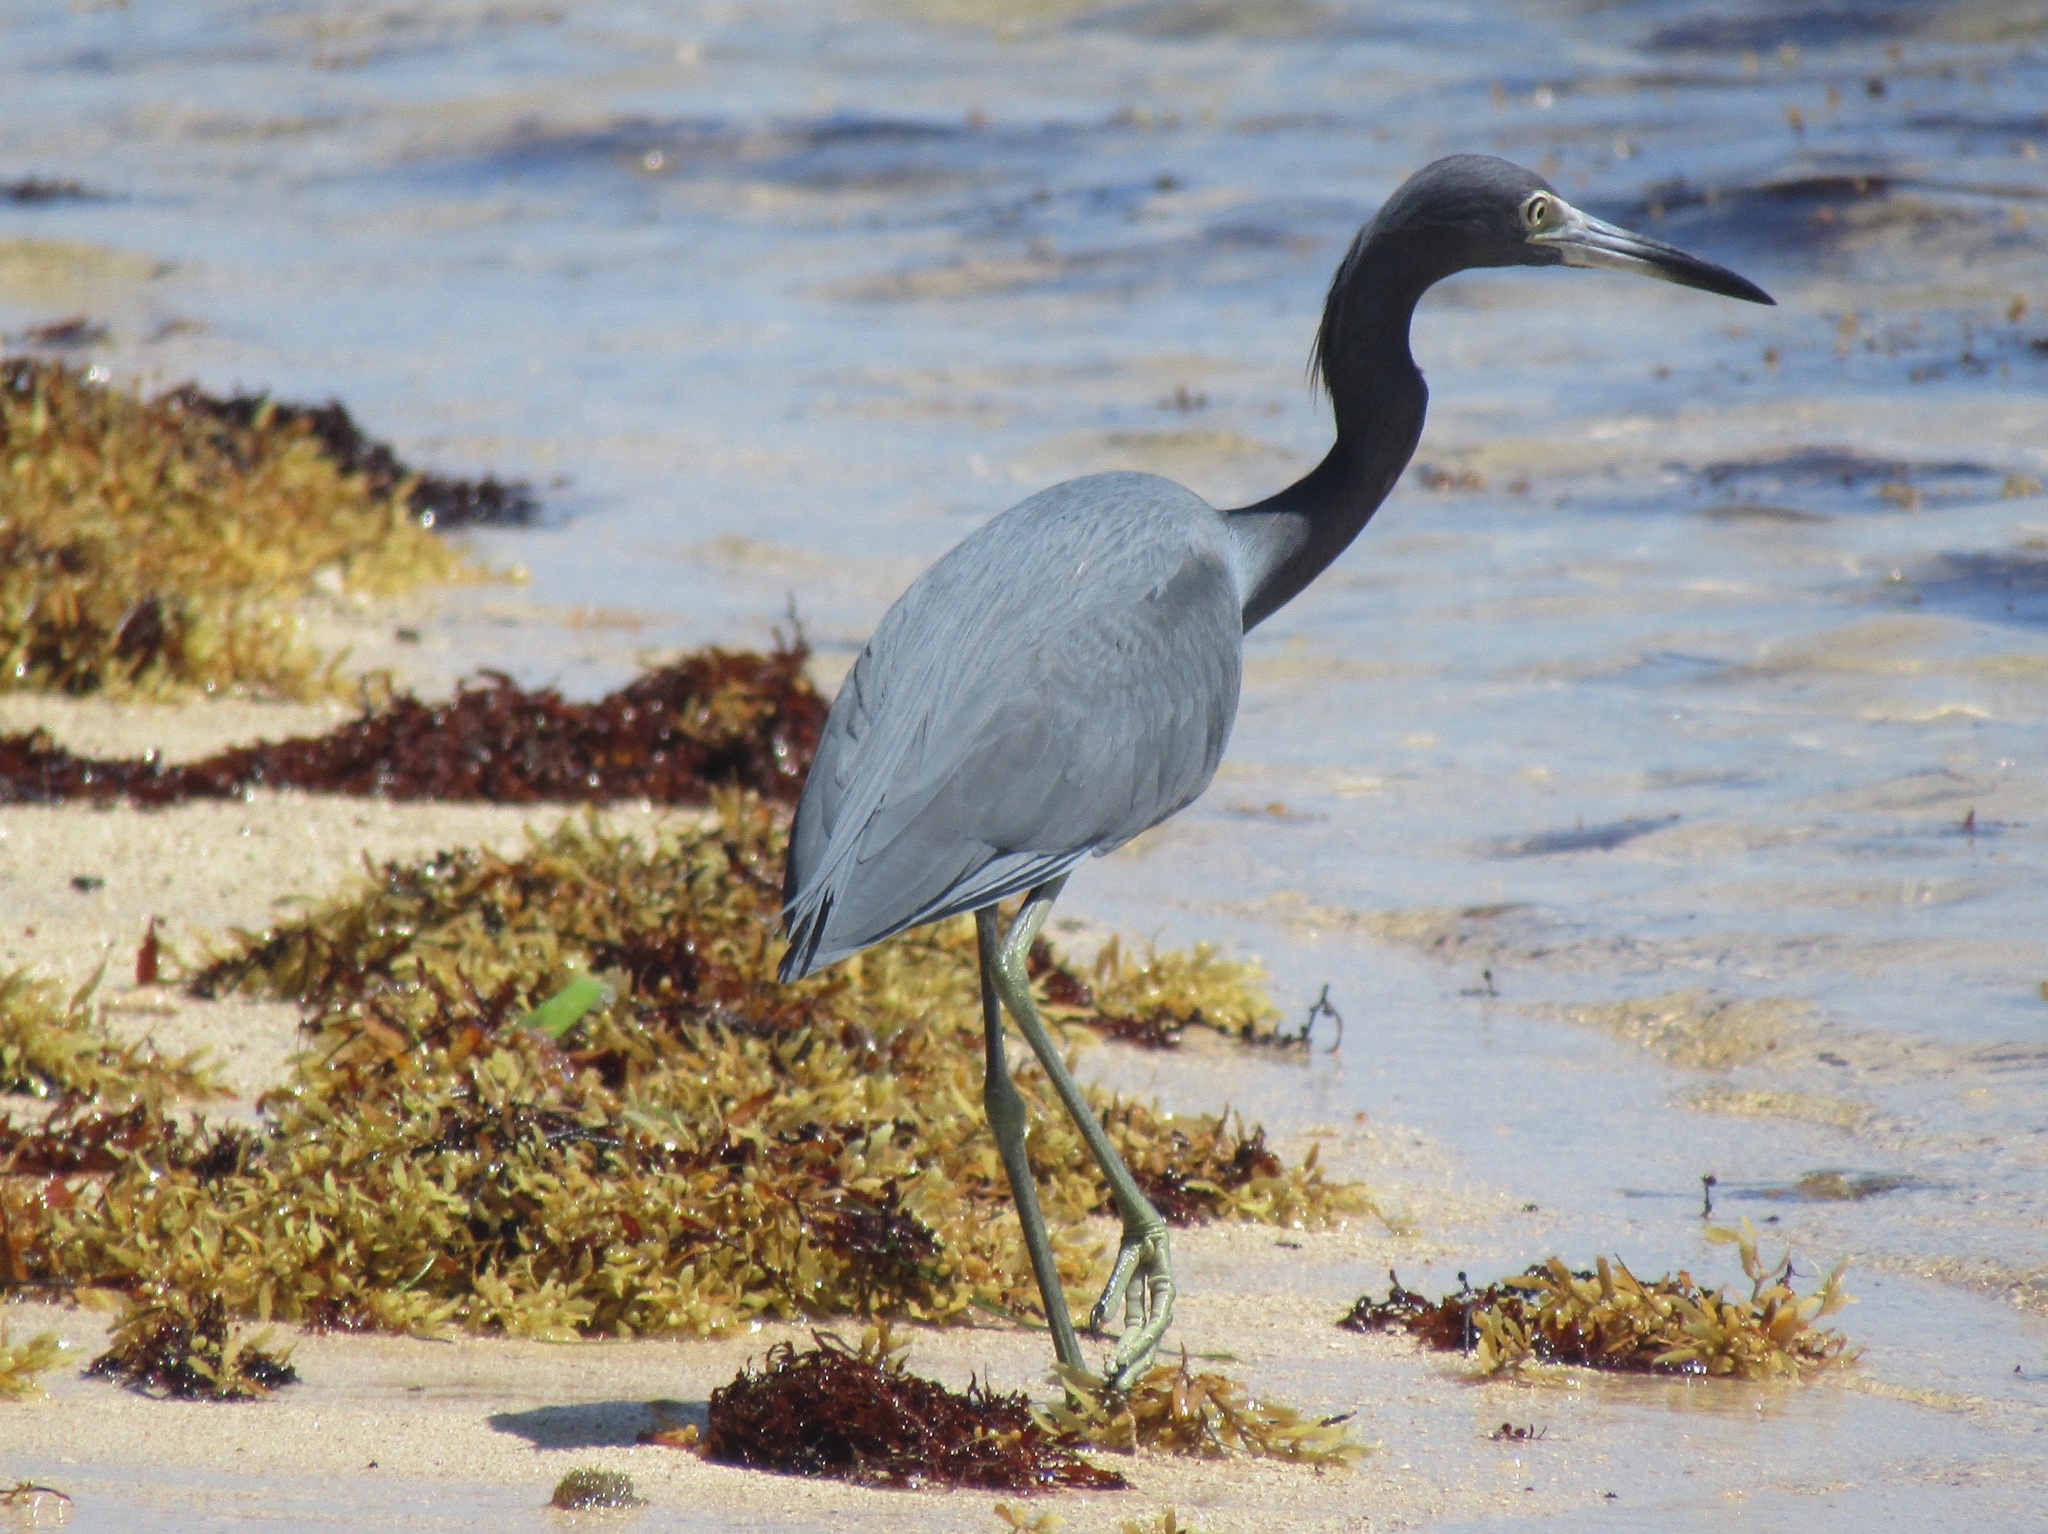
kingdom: Animalia
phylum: Chordata
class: Aves
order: Pelecaniformes
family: Ardeidae
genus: Egretta
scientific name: Egretta caerulea
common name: Little blue heron
